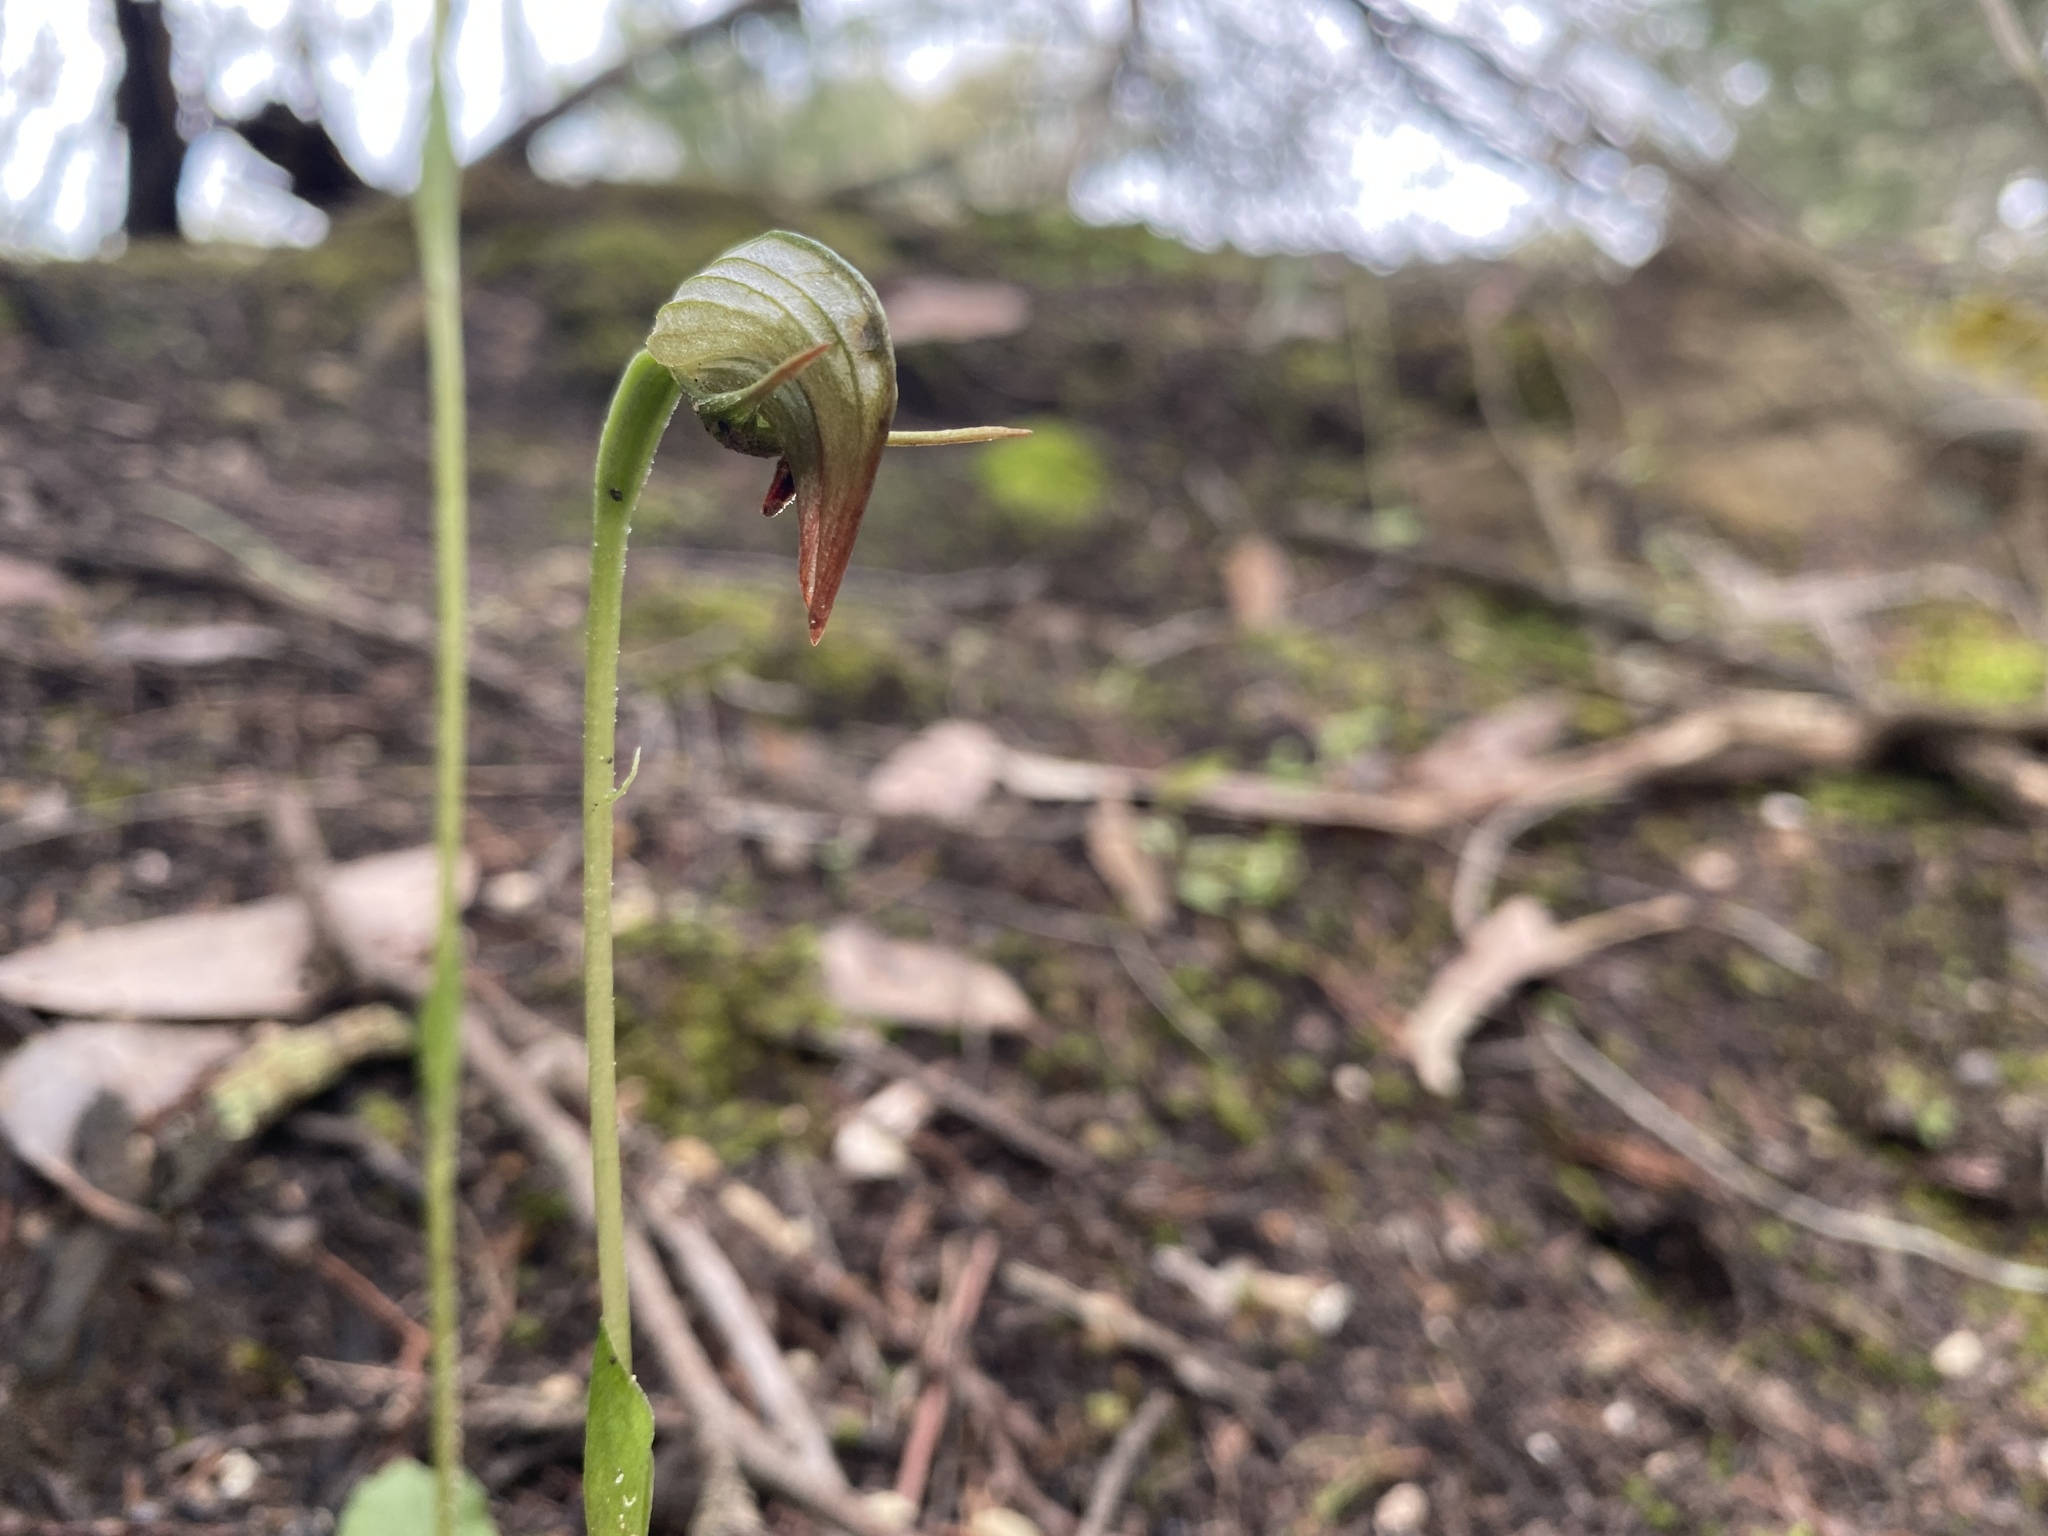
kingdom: Plantae
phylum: Tracheophyta
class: Liliopsida
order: Asparagales
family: Orchidaceae
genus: Pterostylis
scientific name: Pterostylis nutans
